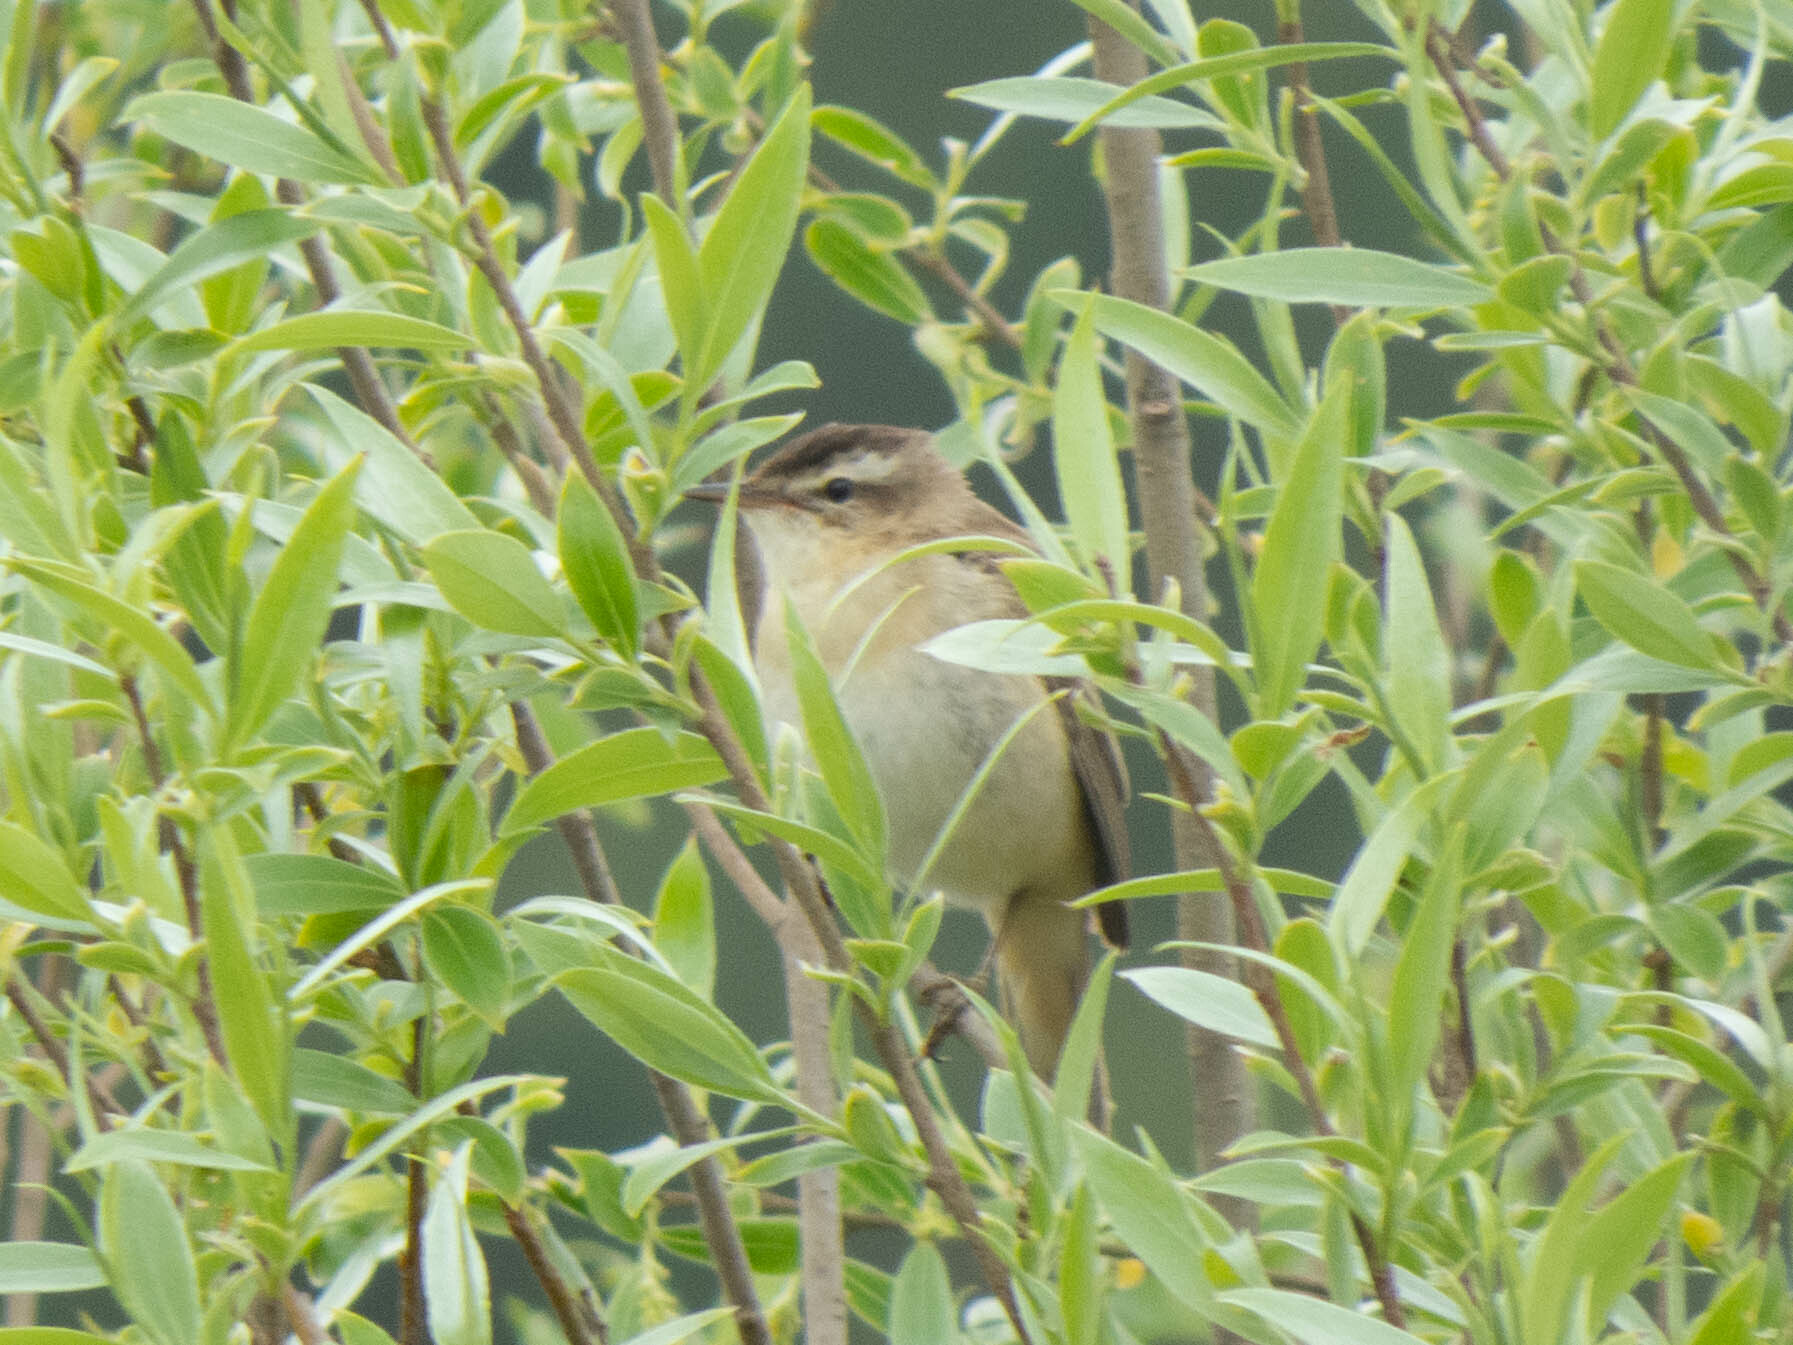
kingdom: Animalia
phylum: Chordata
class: Aves
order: Passeriformes
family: Acrocephalidae
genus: Acrocephalus
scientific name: Acrocephalus schoenobaenus
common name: Sedge warbler
